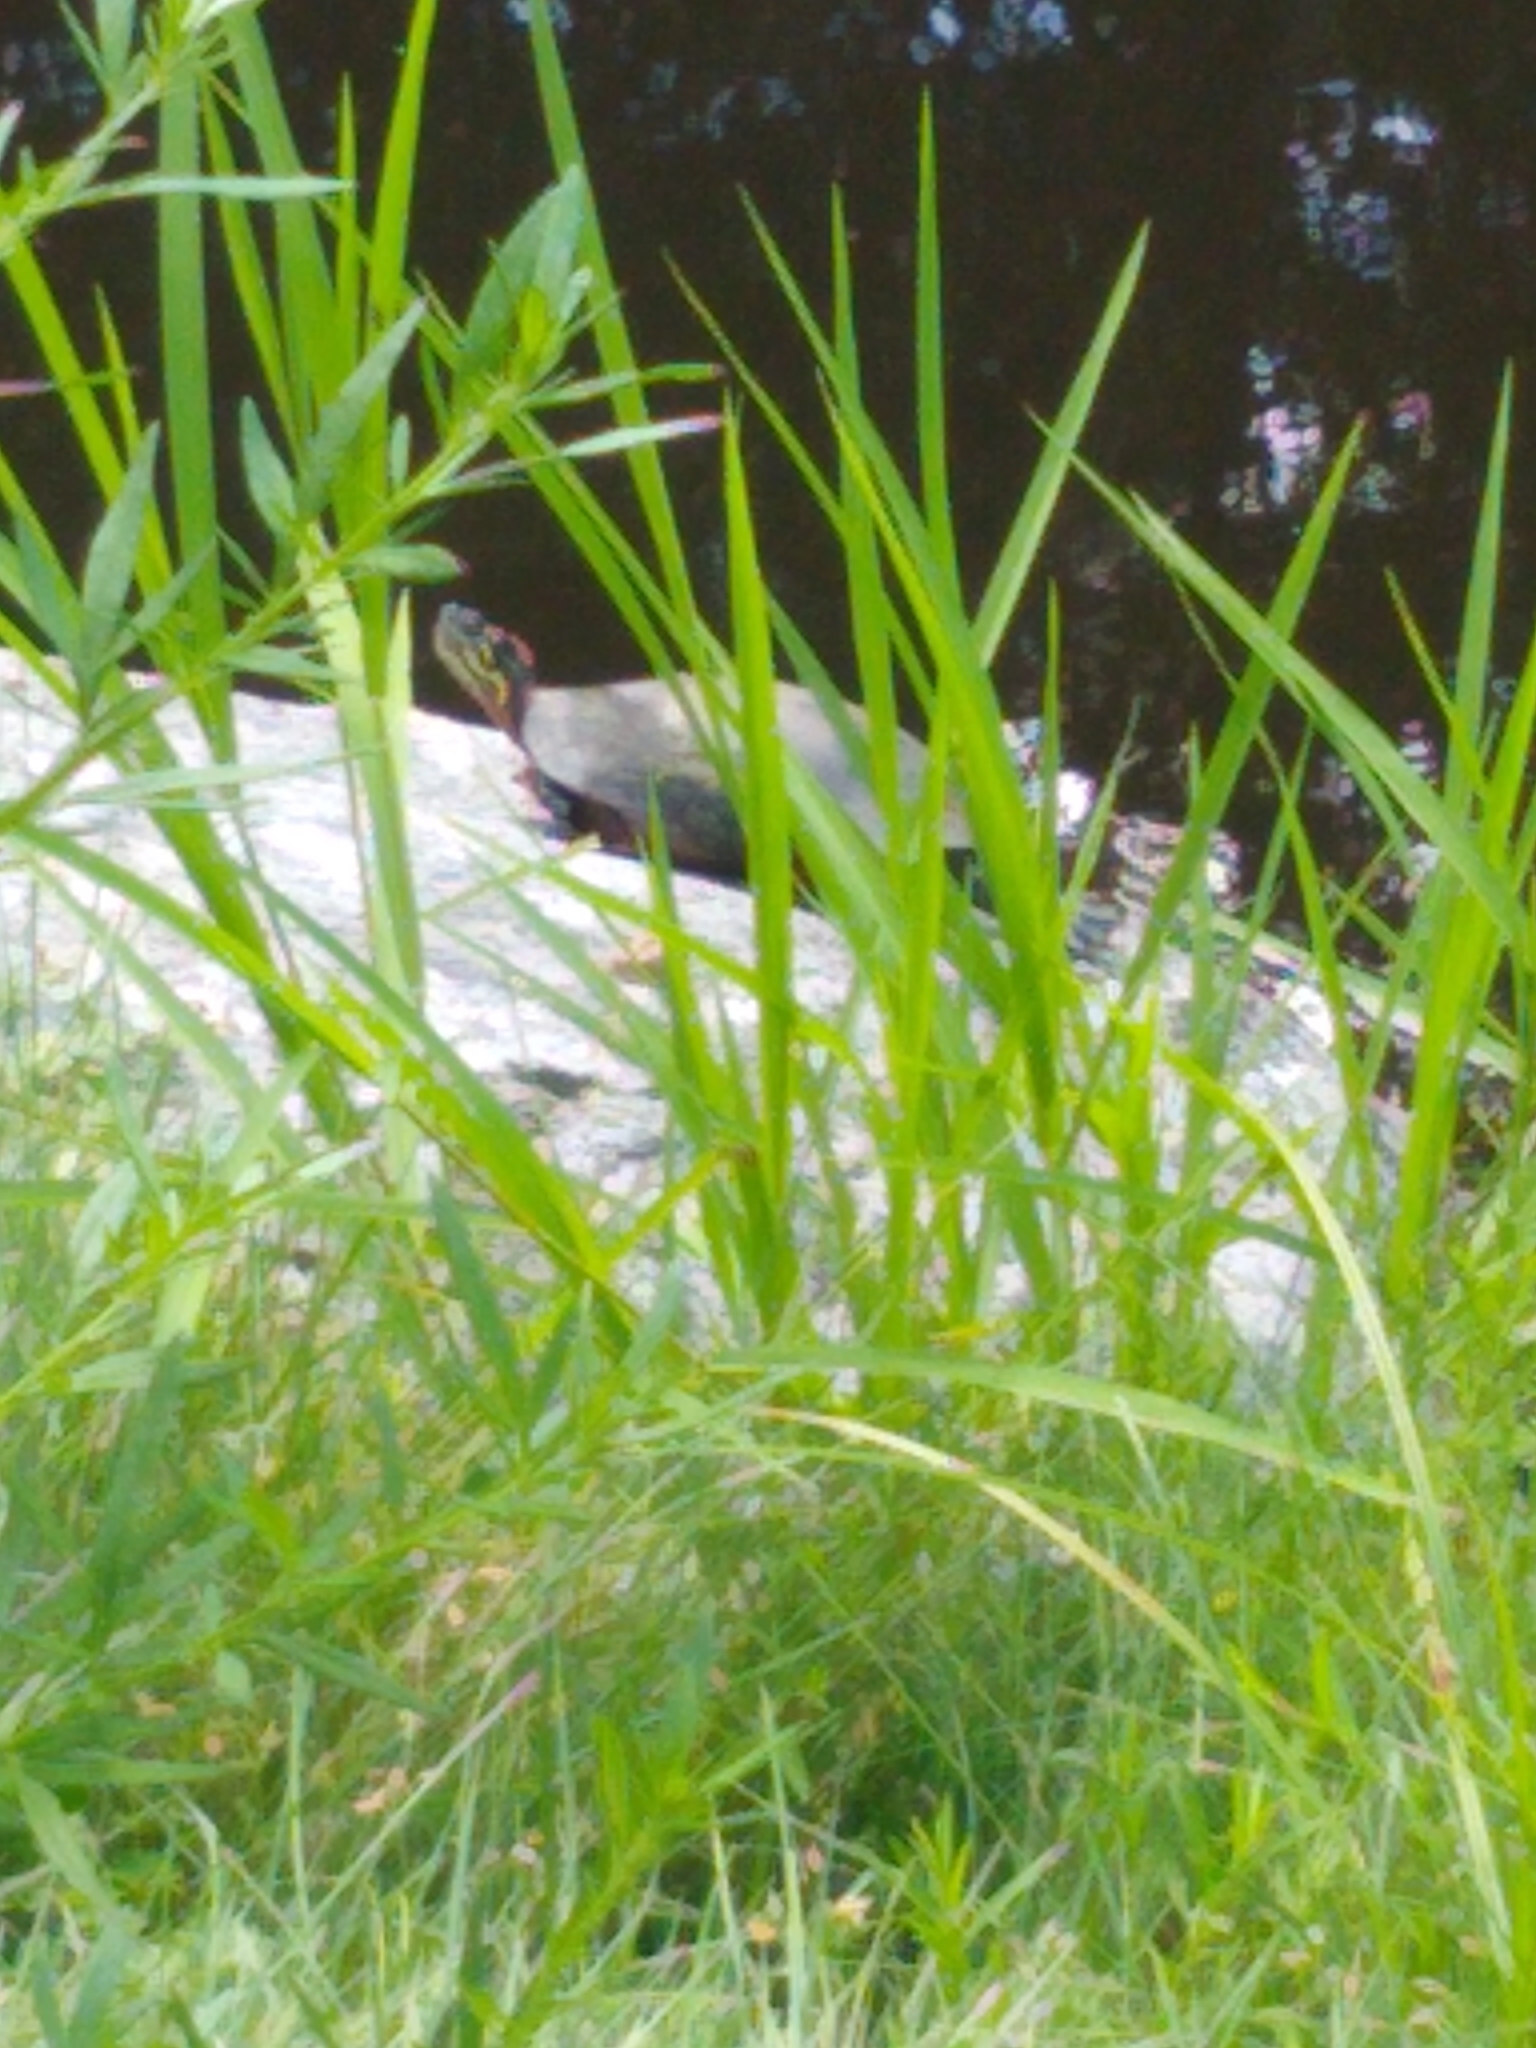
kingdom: Animalia
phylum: Chordata
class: Testudines
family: Emydidae
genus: Chrysemys
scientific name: Chrysemys picta
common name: Painted turtle
